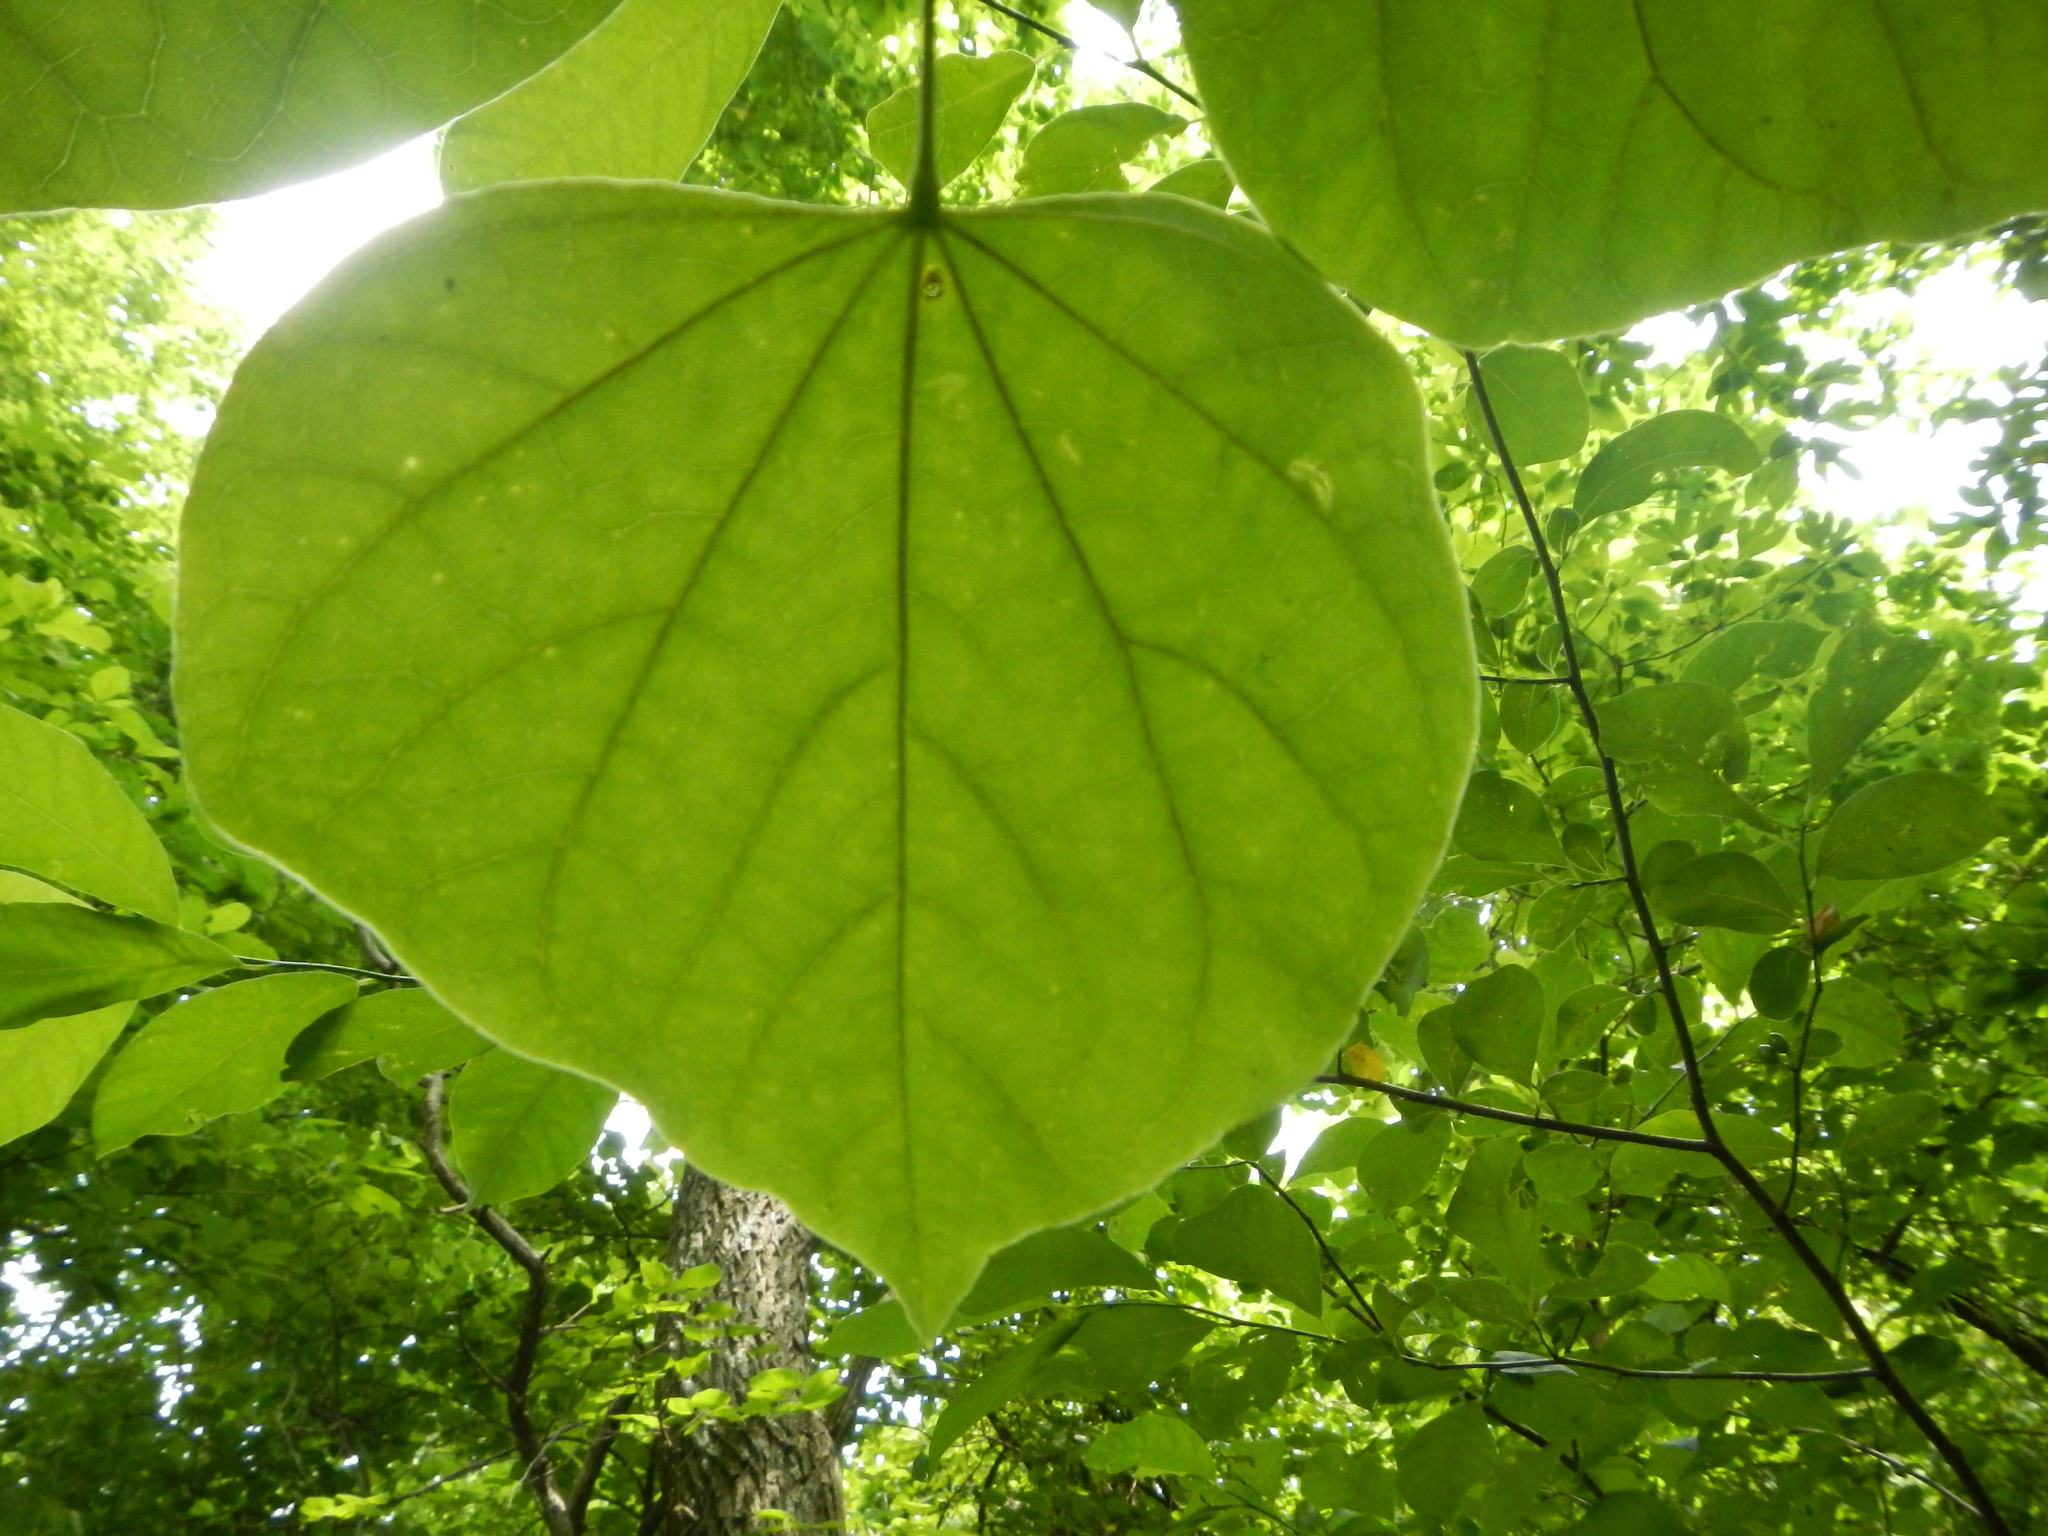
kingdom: Plantae
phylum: Tracheophyta
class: Magnoliopsida
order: Fabales
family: Fabaceae
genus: Cercis
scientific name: Cercis canadensis
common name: Eastern redbud
